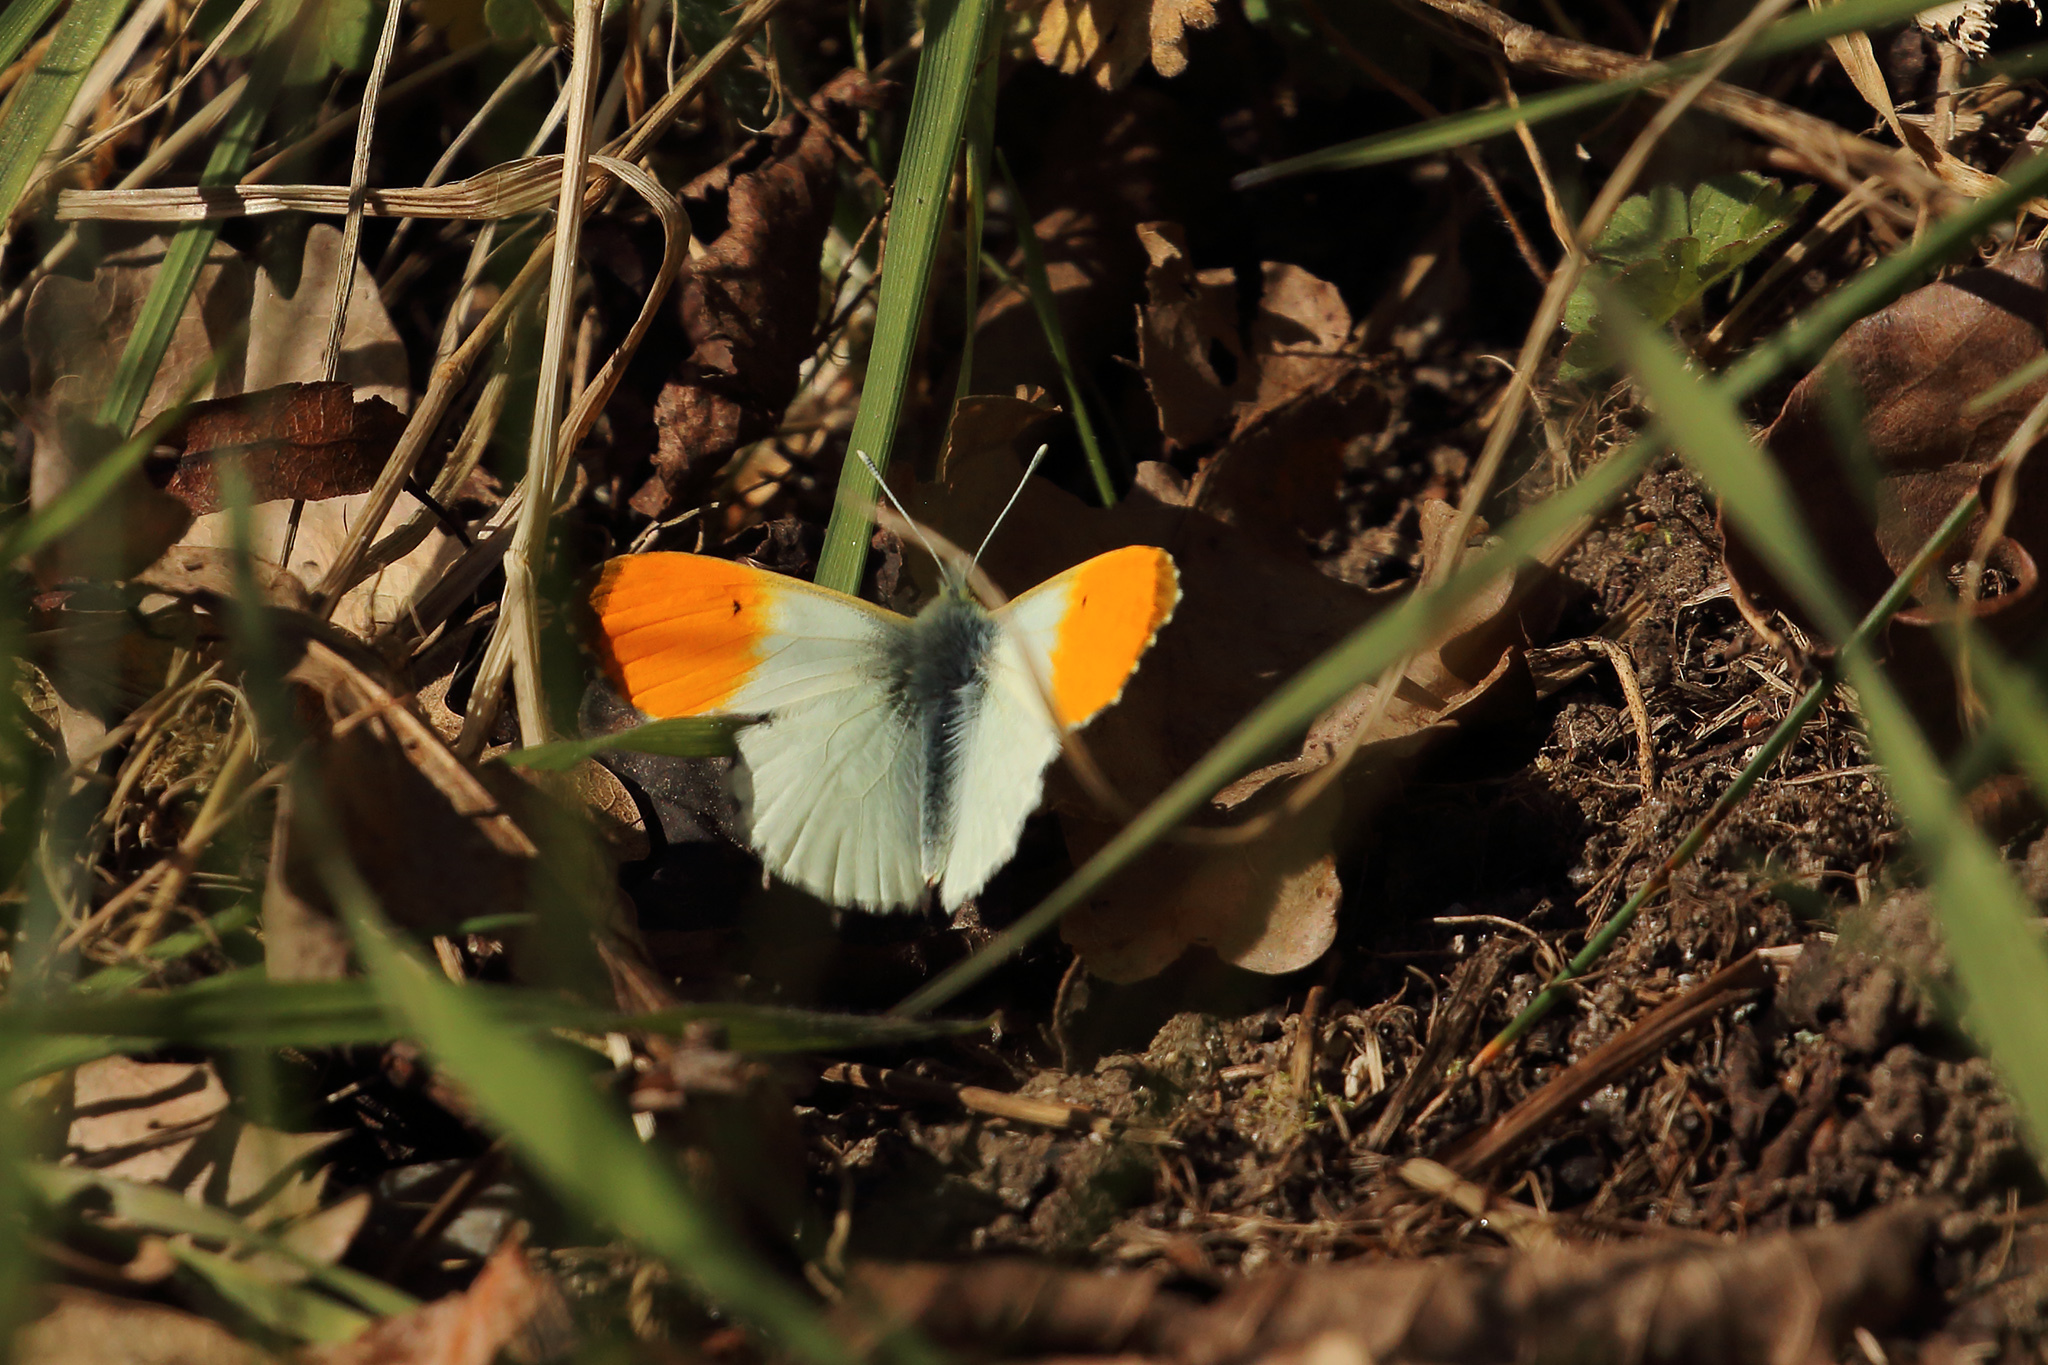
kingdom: Animalia
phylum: Arthropoda
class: Insecta
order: Lepidoptera
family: Pieridae
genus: Anthocharis
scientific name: Anthocharis cardamines
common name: Orange-tip
